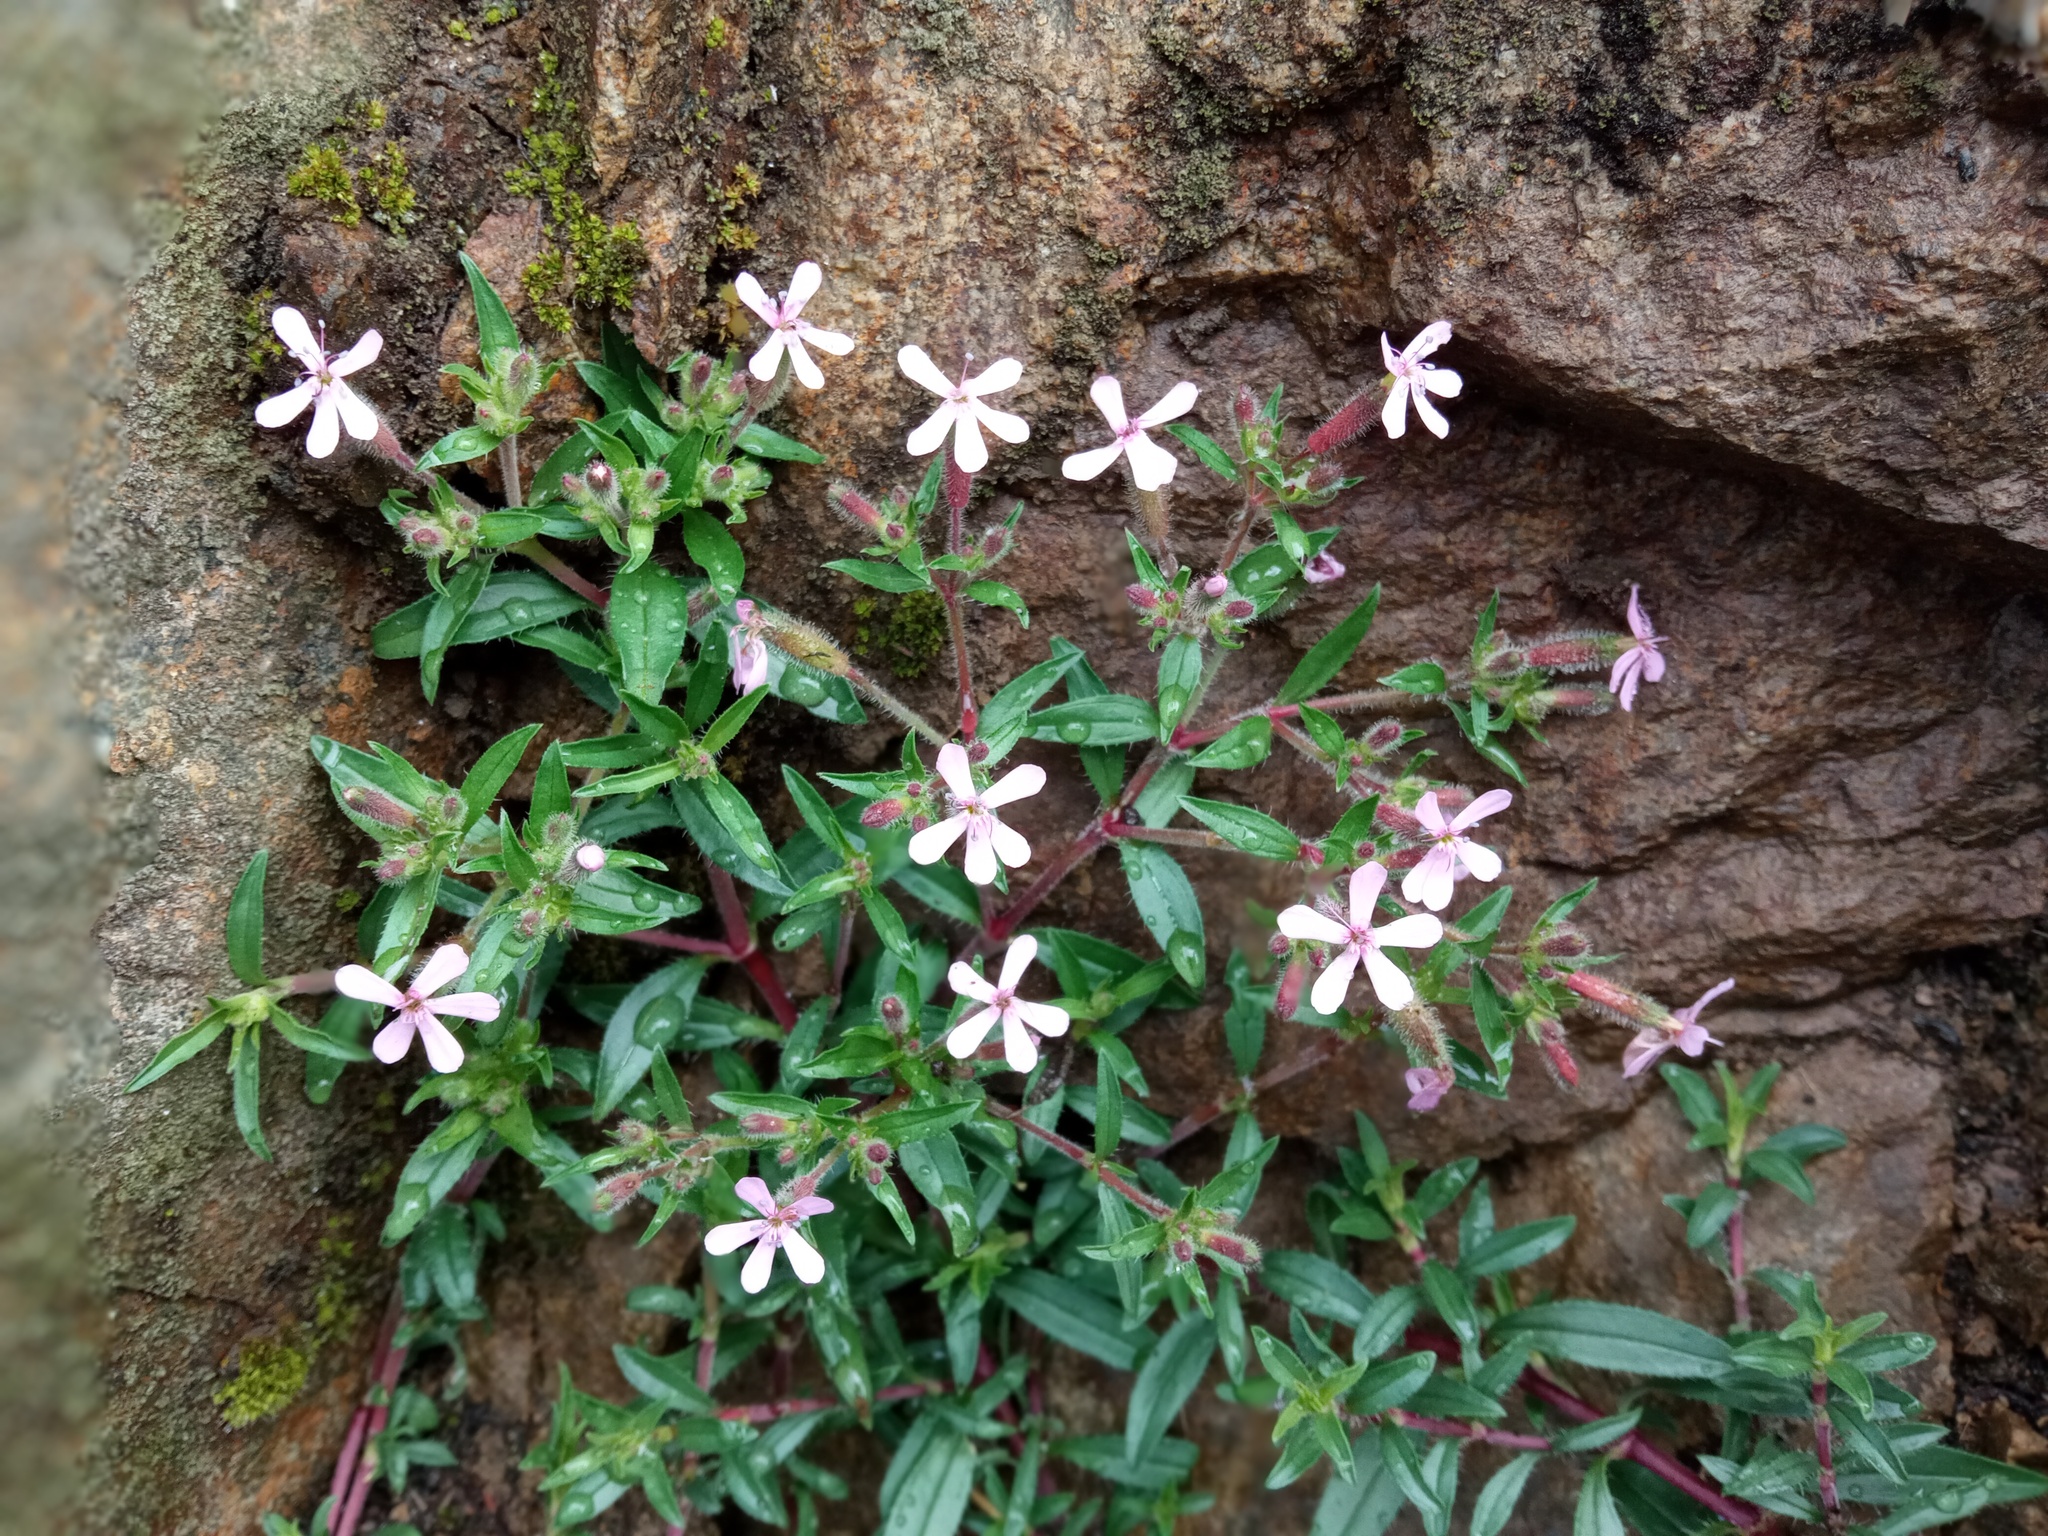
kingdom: Plantae
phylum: Tracheophyta
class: Magnoliopsida
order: Caryophyllales
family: Caryophyllaceae
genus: Saponaria
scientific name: Saponaria ocymoides
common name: Rock soapwort
